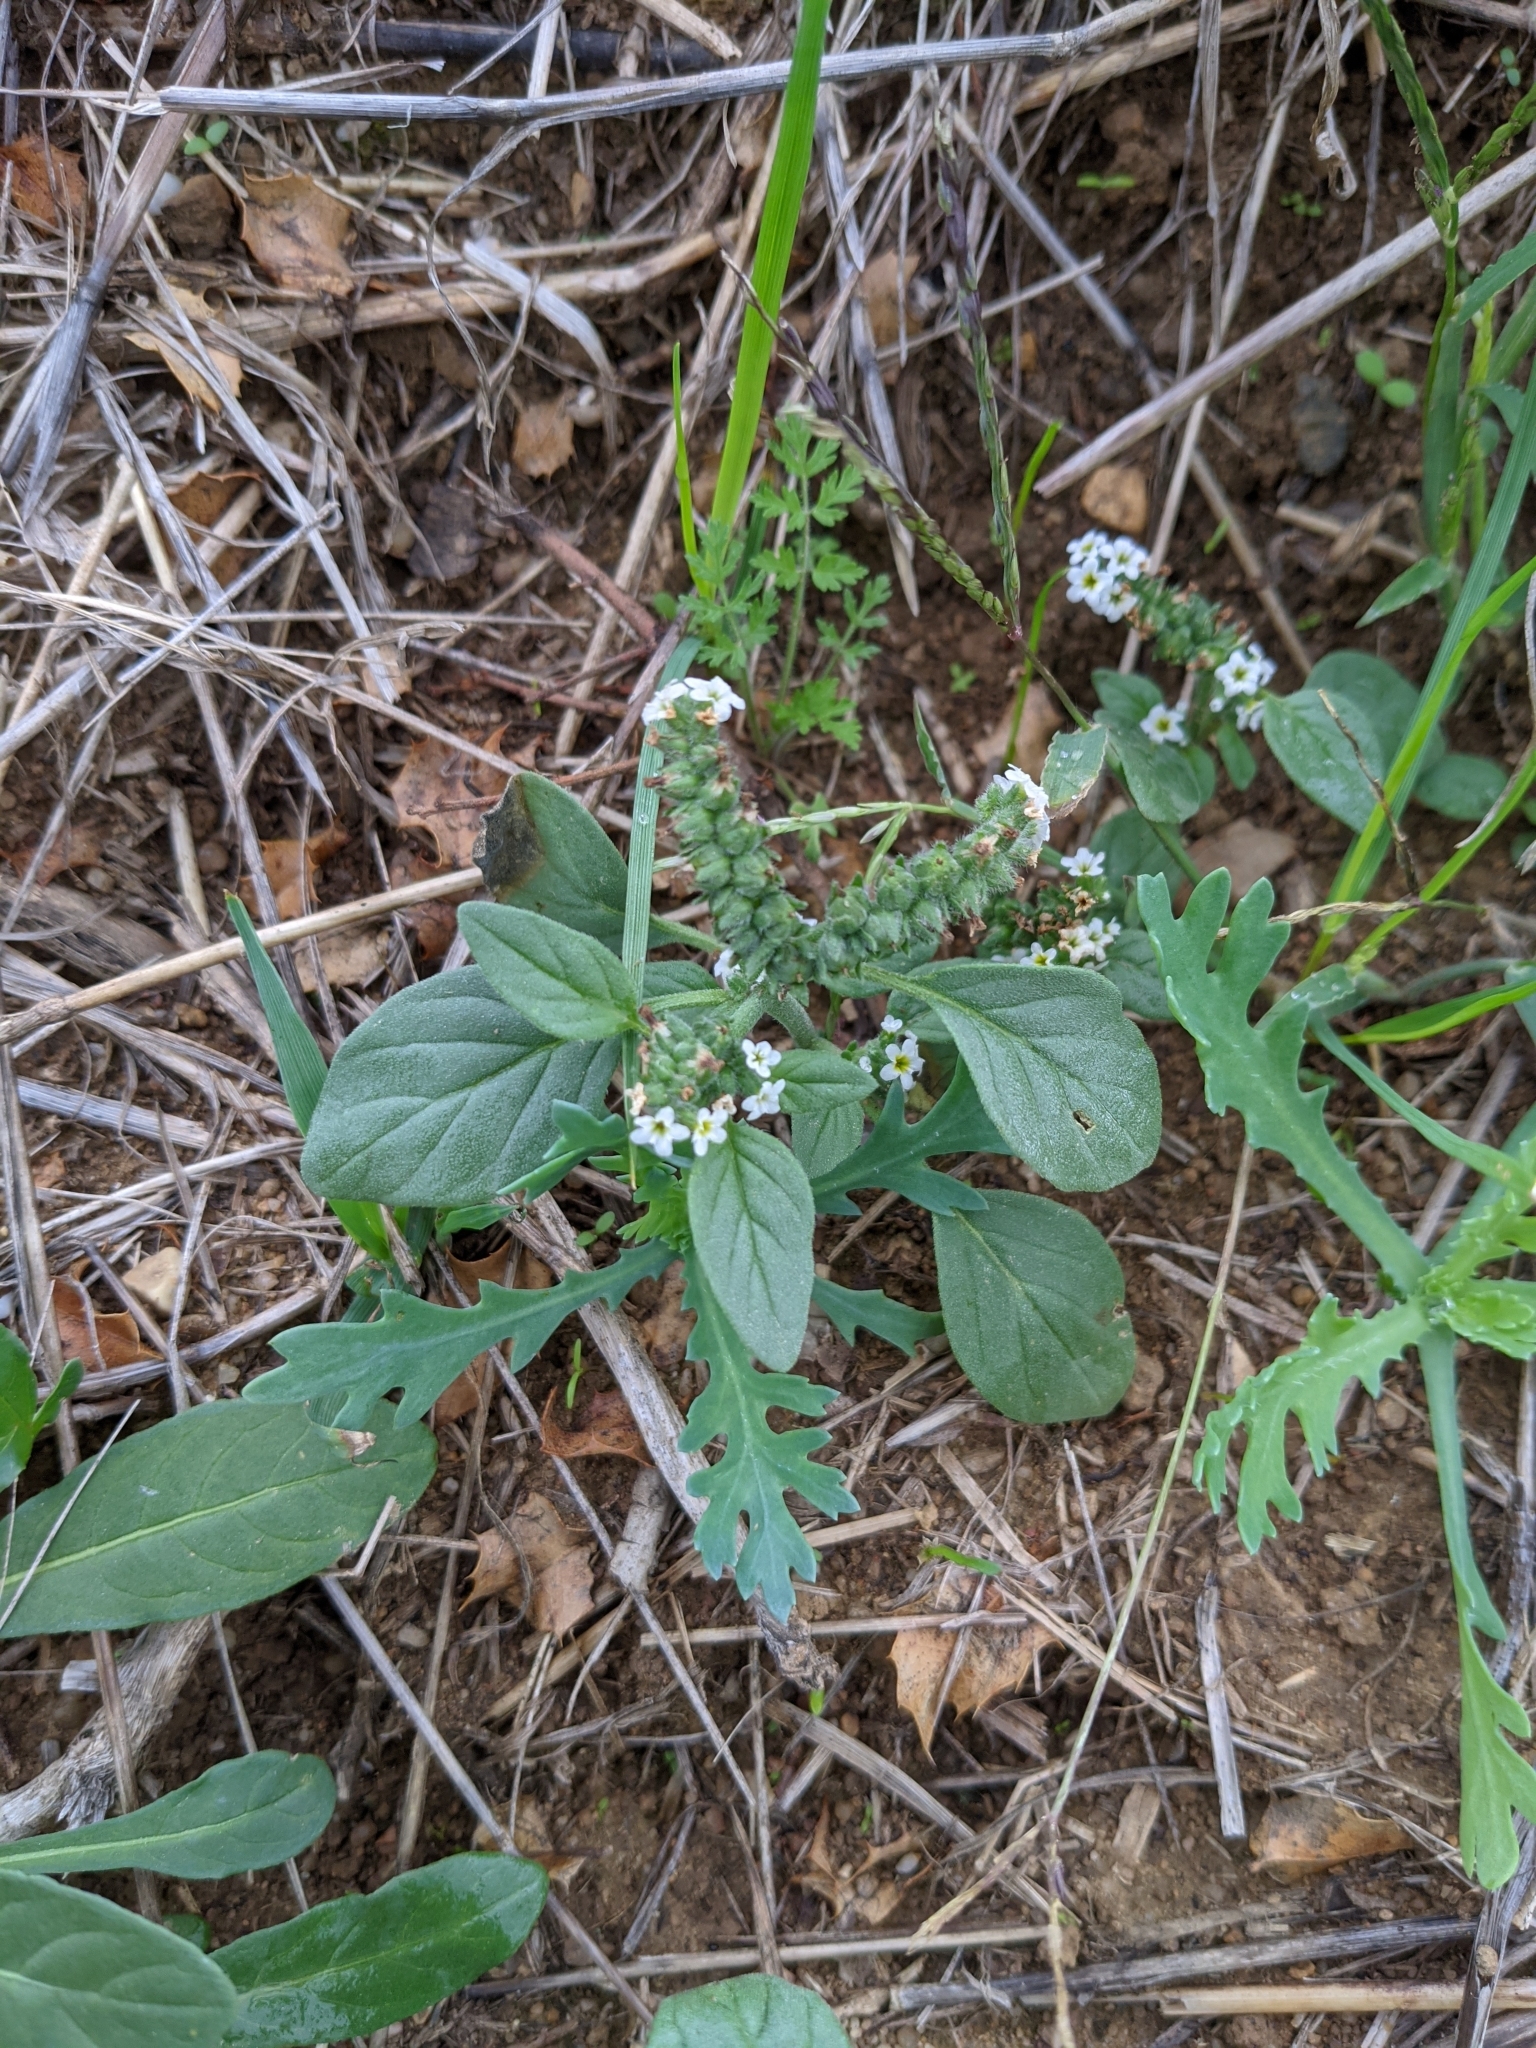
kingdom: Plantae
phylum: Tracheophyta
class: Magnoliopsida
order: Boraginales
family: Heliotropiaceae
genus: Heliotropium
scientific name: Heliotropium europaeum
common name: European heliotrope
